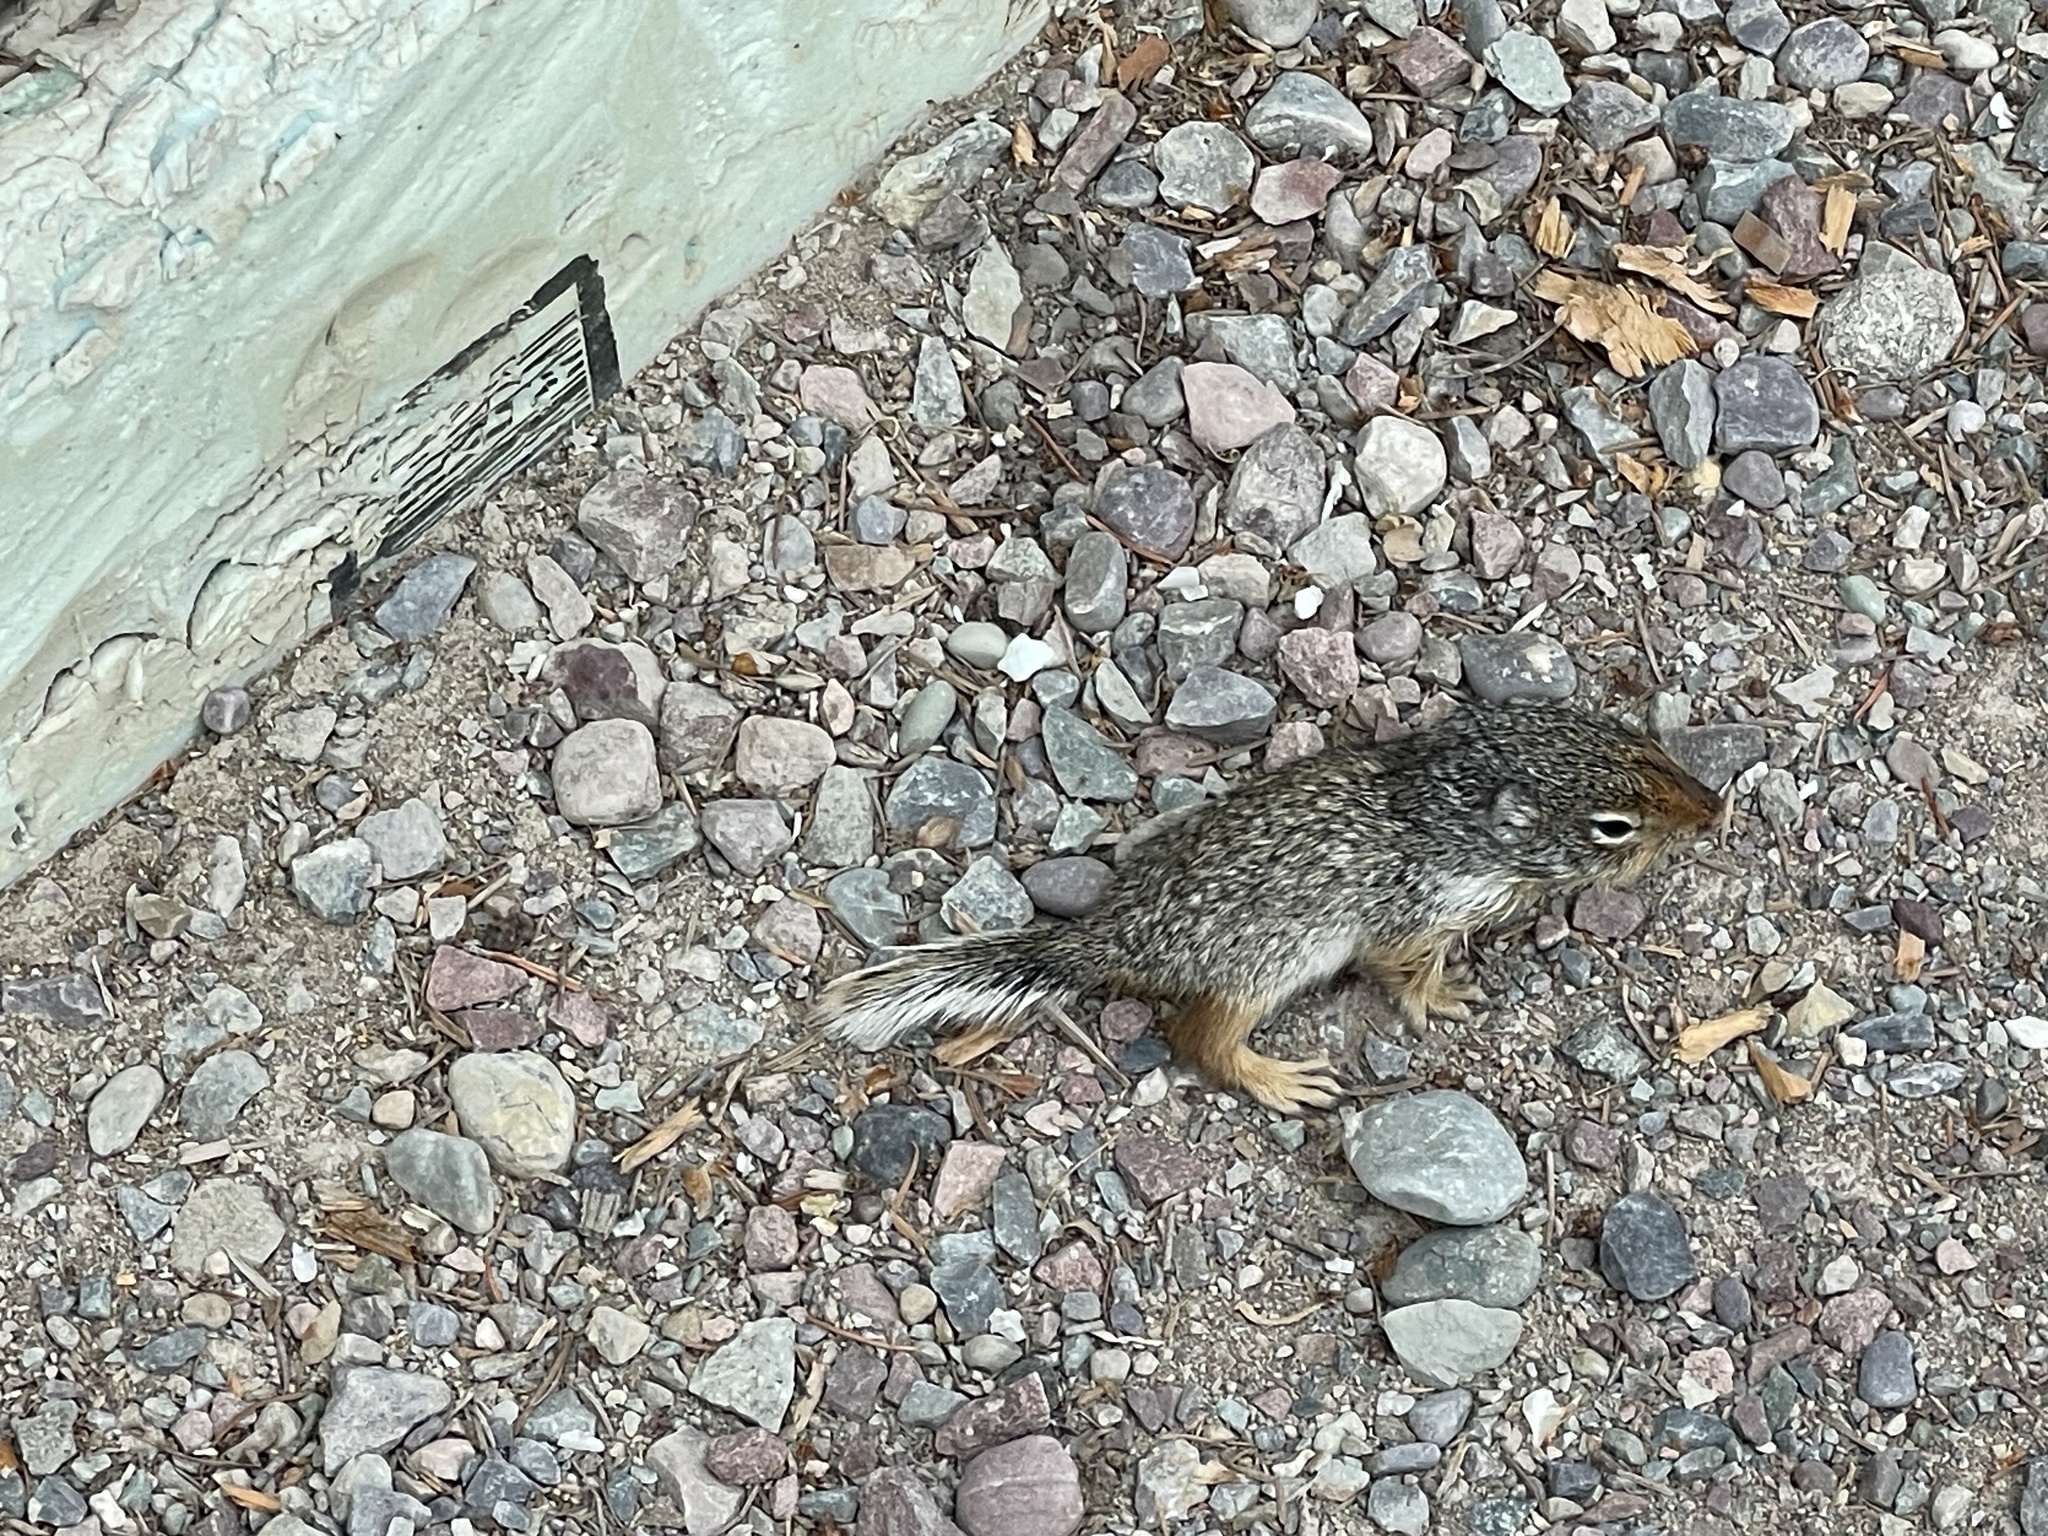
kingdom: Animalia
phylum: Chordata
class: Mammalia
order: Rodentia
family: Sciuridae
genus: Urocitellus
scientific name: Urocitellus columbianus
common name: Columbian ground squirrel
